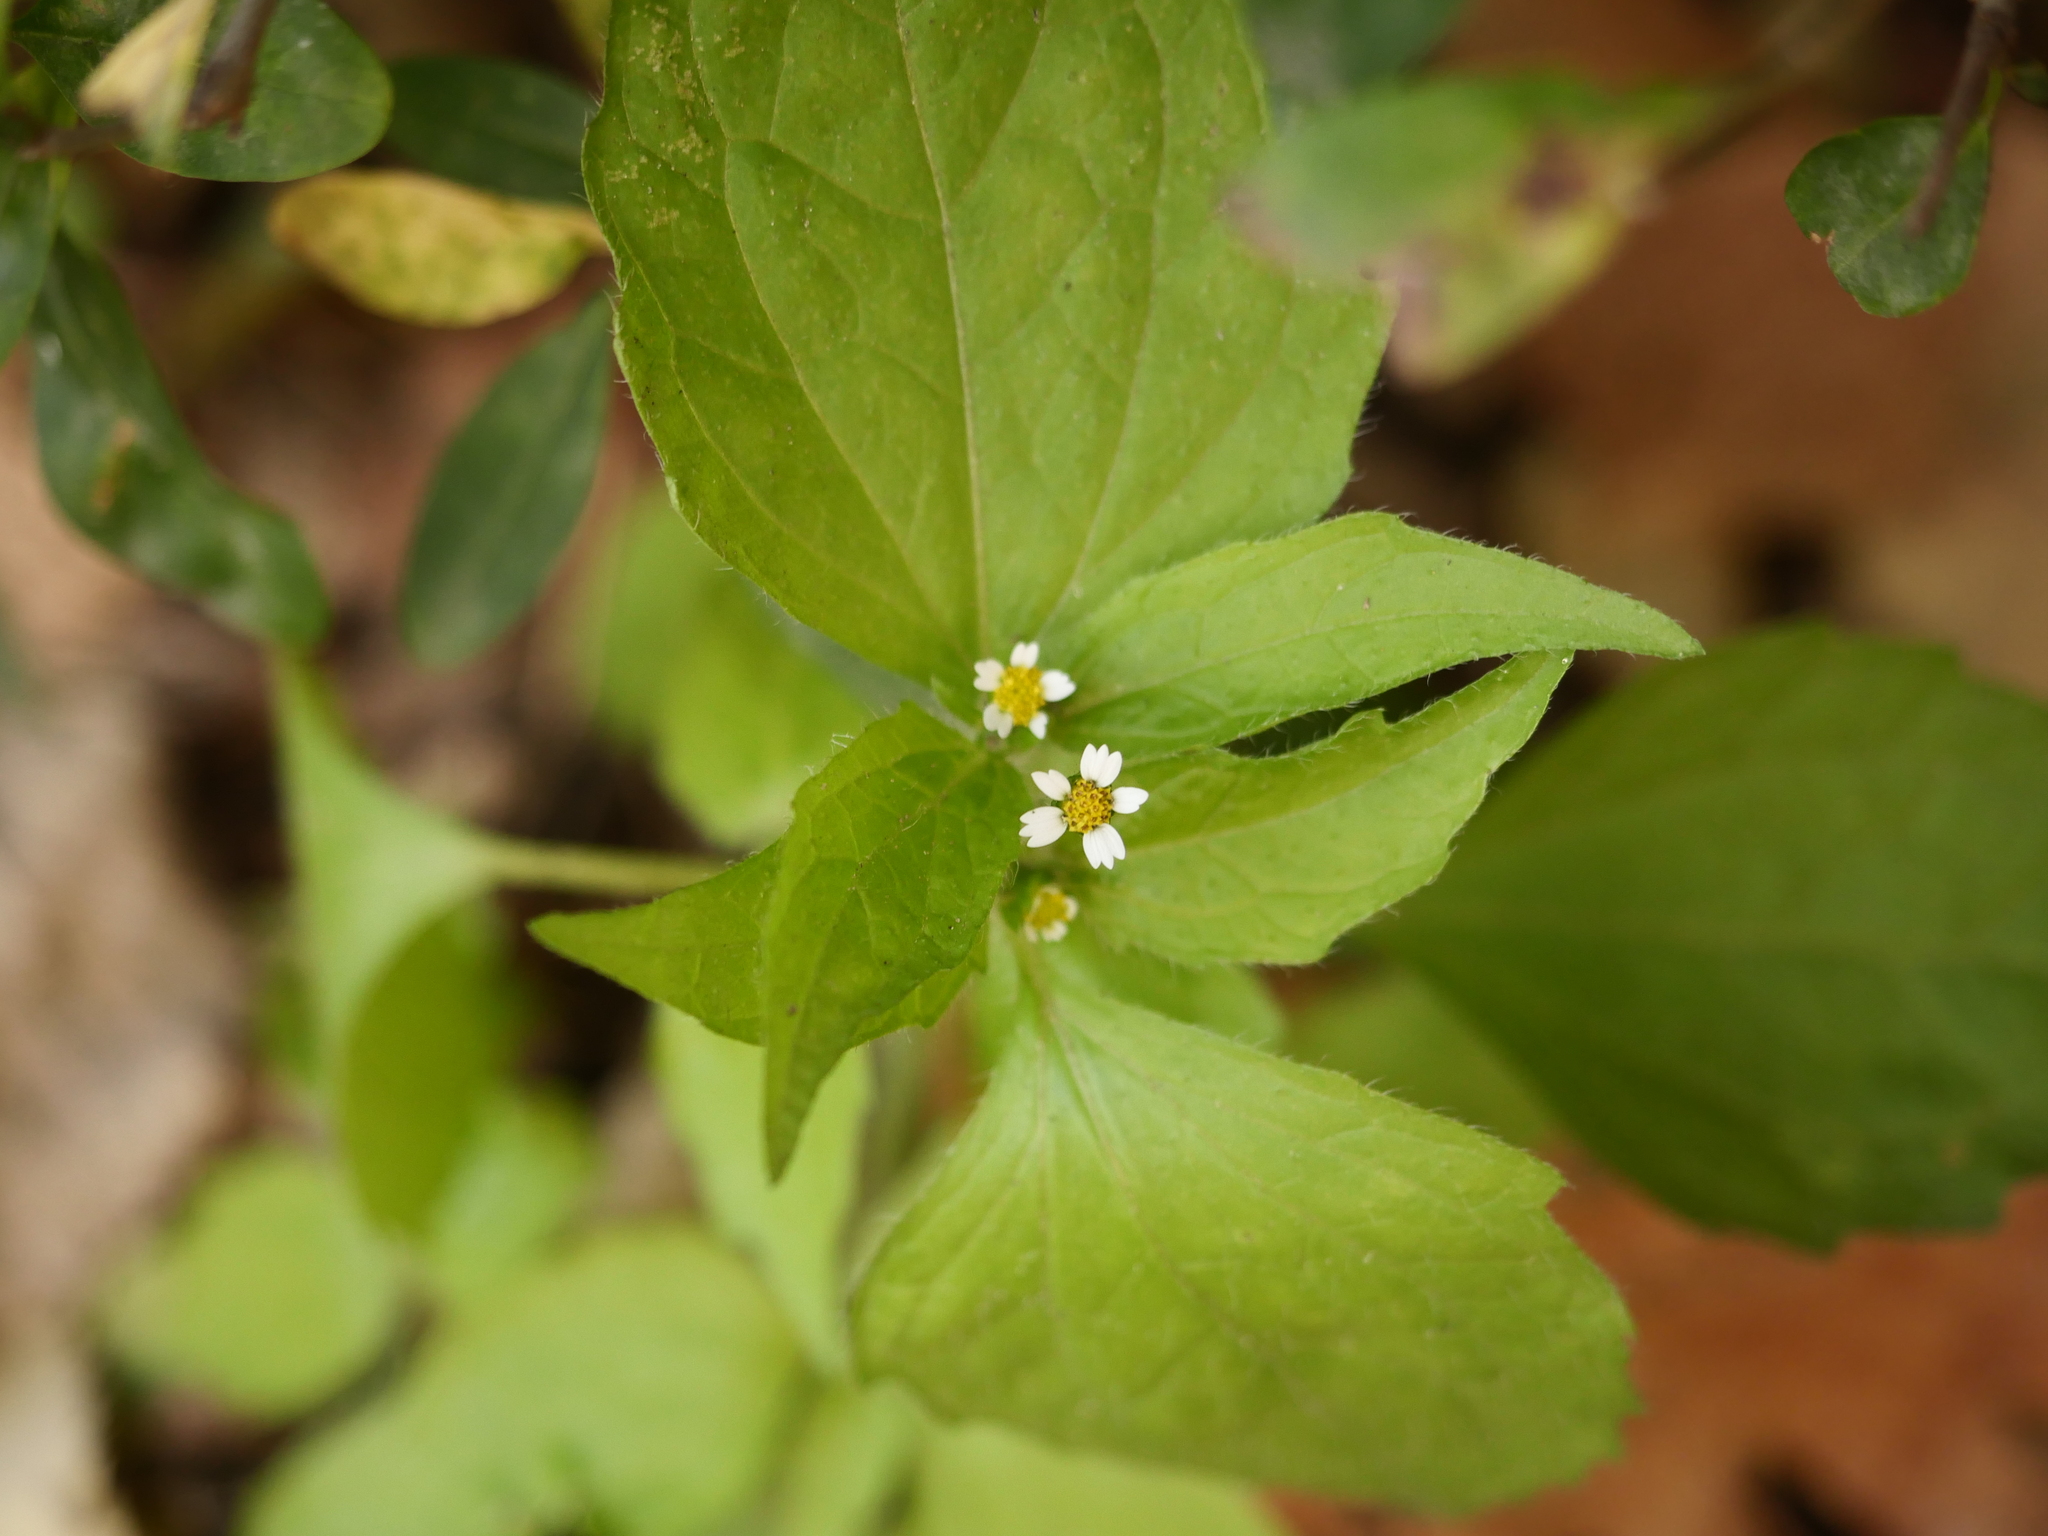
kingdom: Plantae
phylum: Tracheophyta
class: Magnoliopsida
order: Asterales
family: Asteraceae
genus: Galinsoga
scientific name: Galinsoga quadriradiata
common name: Shaggy soldier
